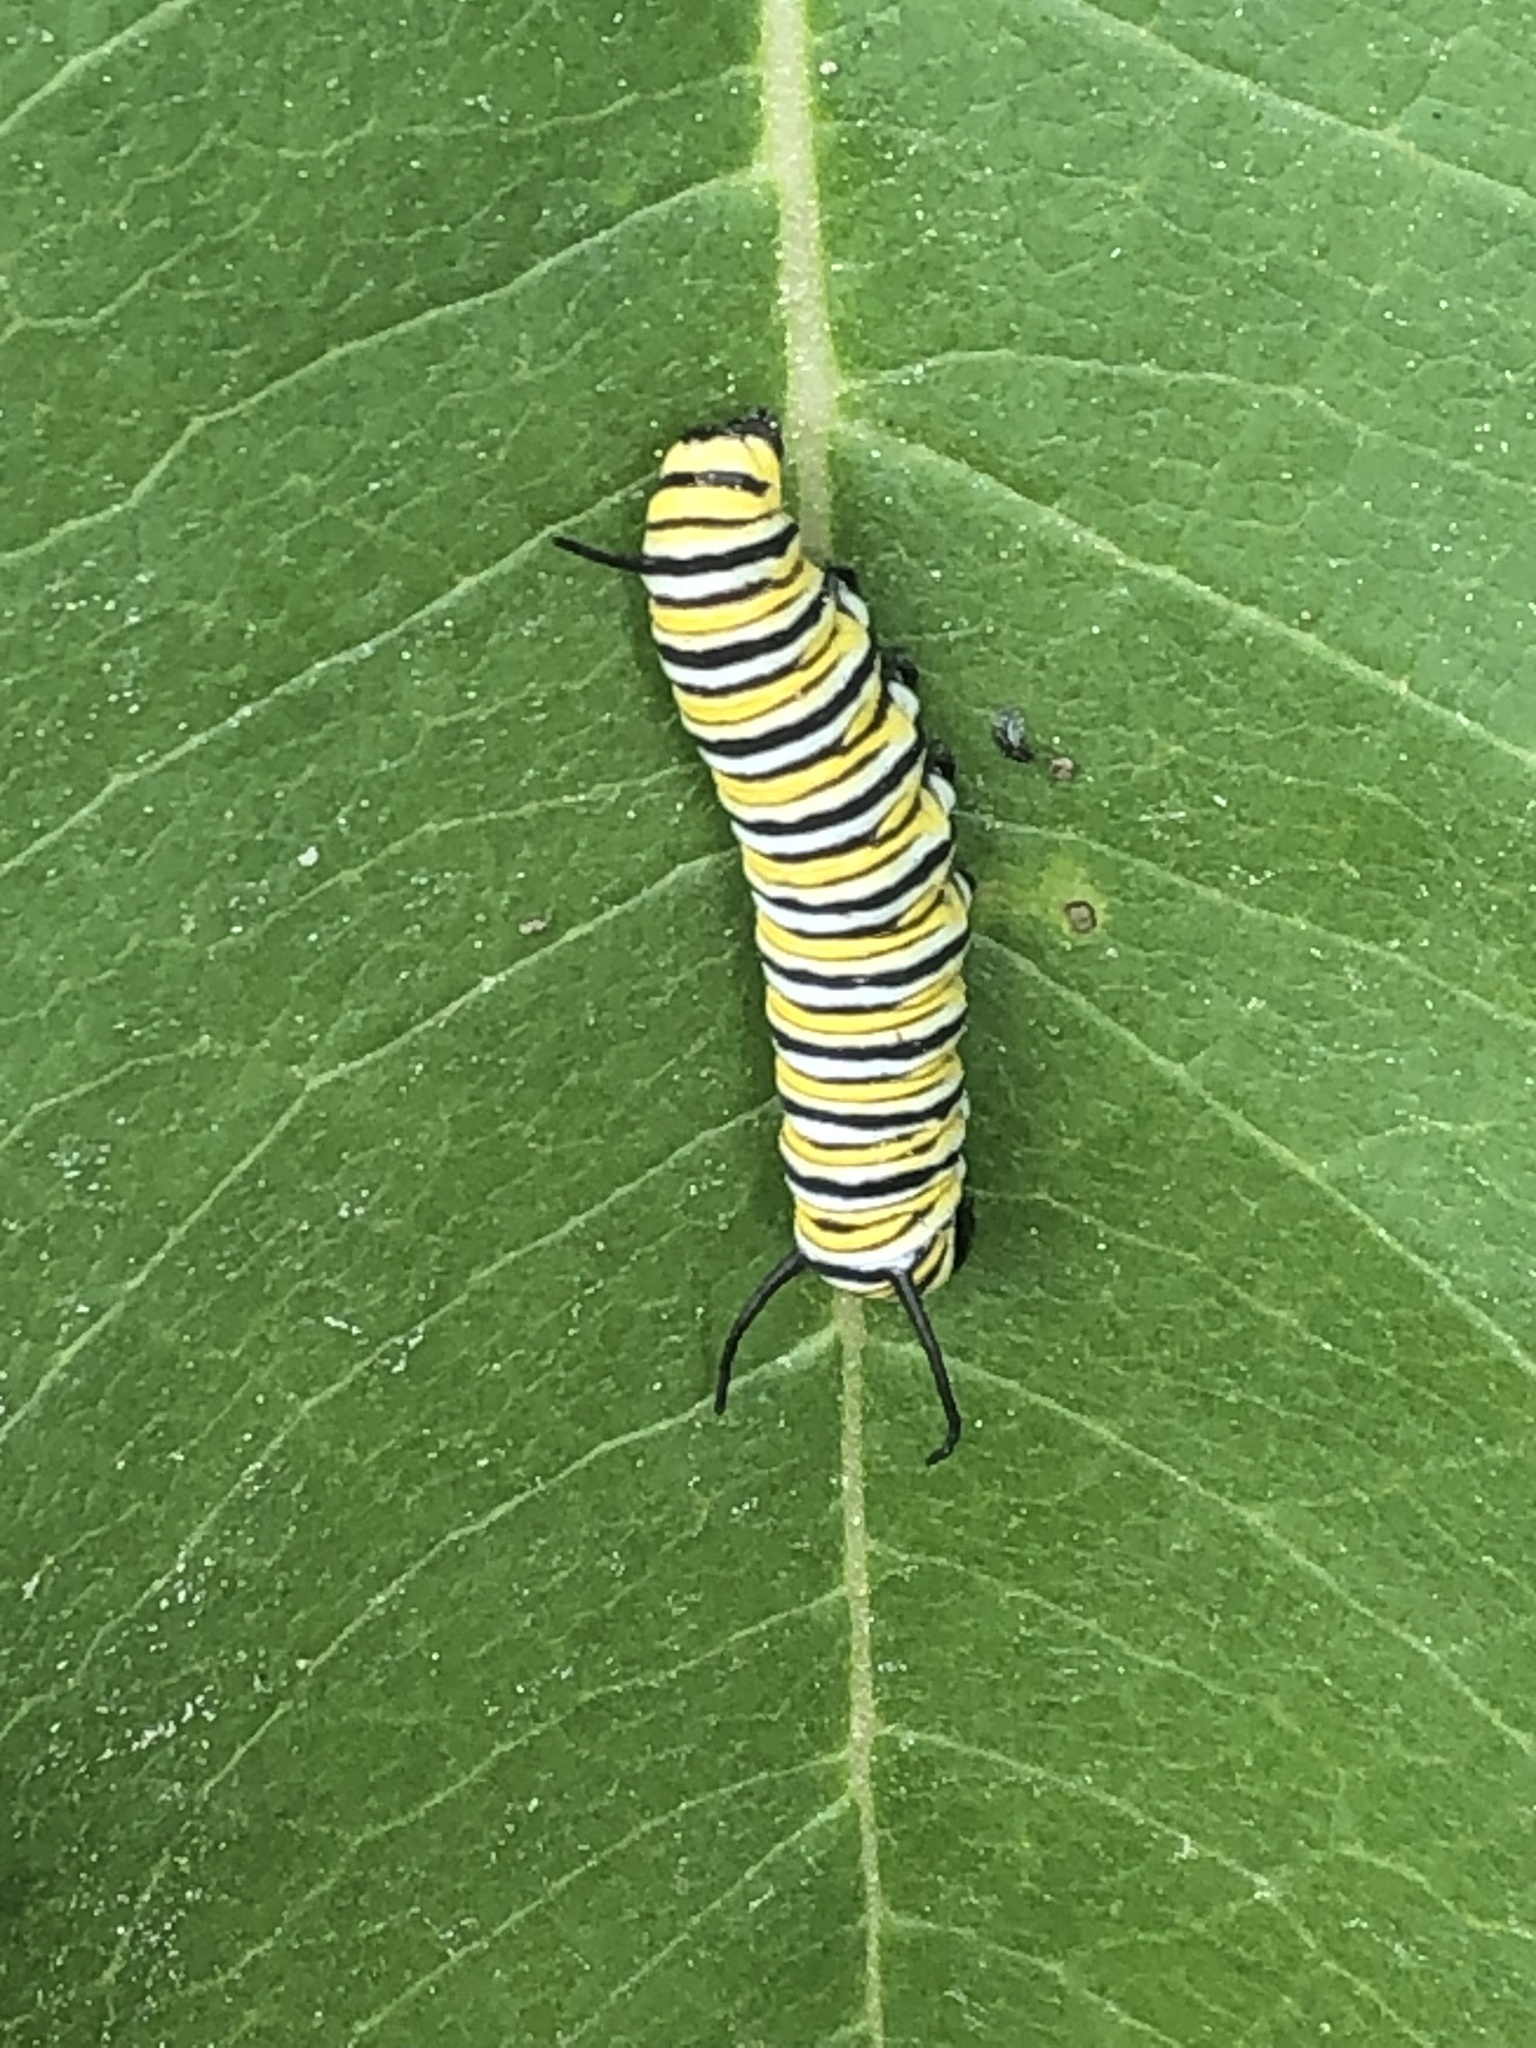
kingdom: Animalia
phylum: Arthropoda
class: Insecta
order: Lepidoptera
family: Nymphalidae
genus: Danaus
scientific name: Danaus plexippus
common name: Monarch
